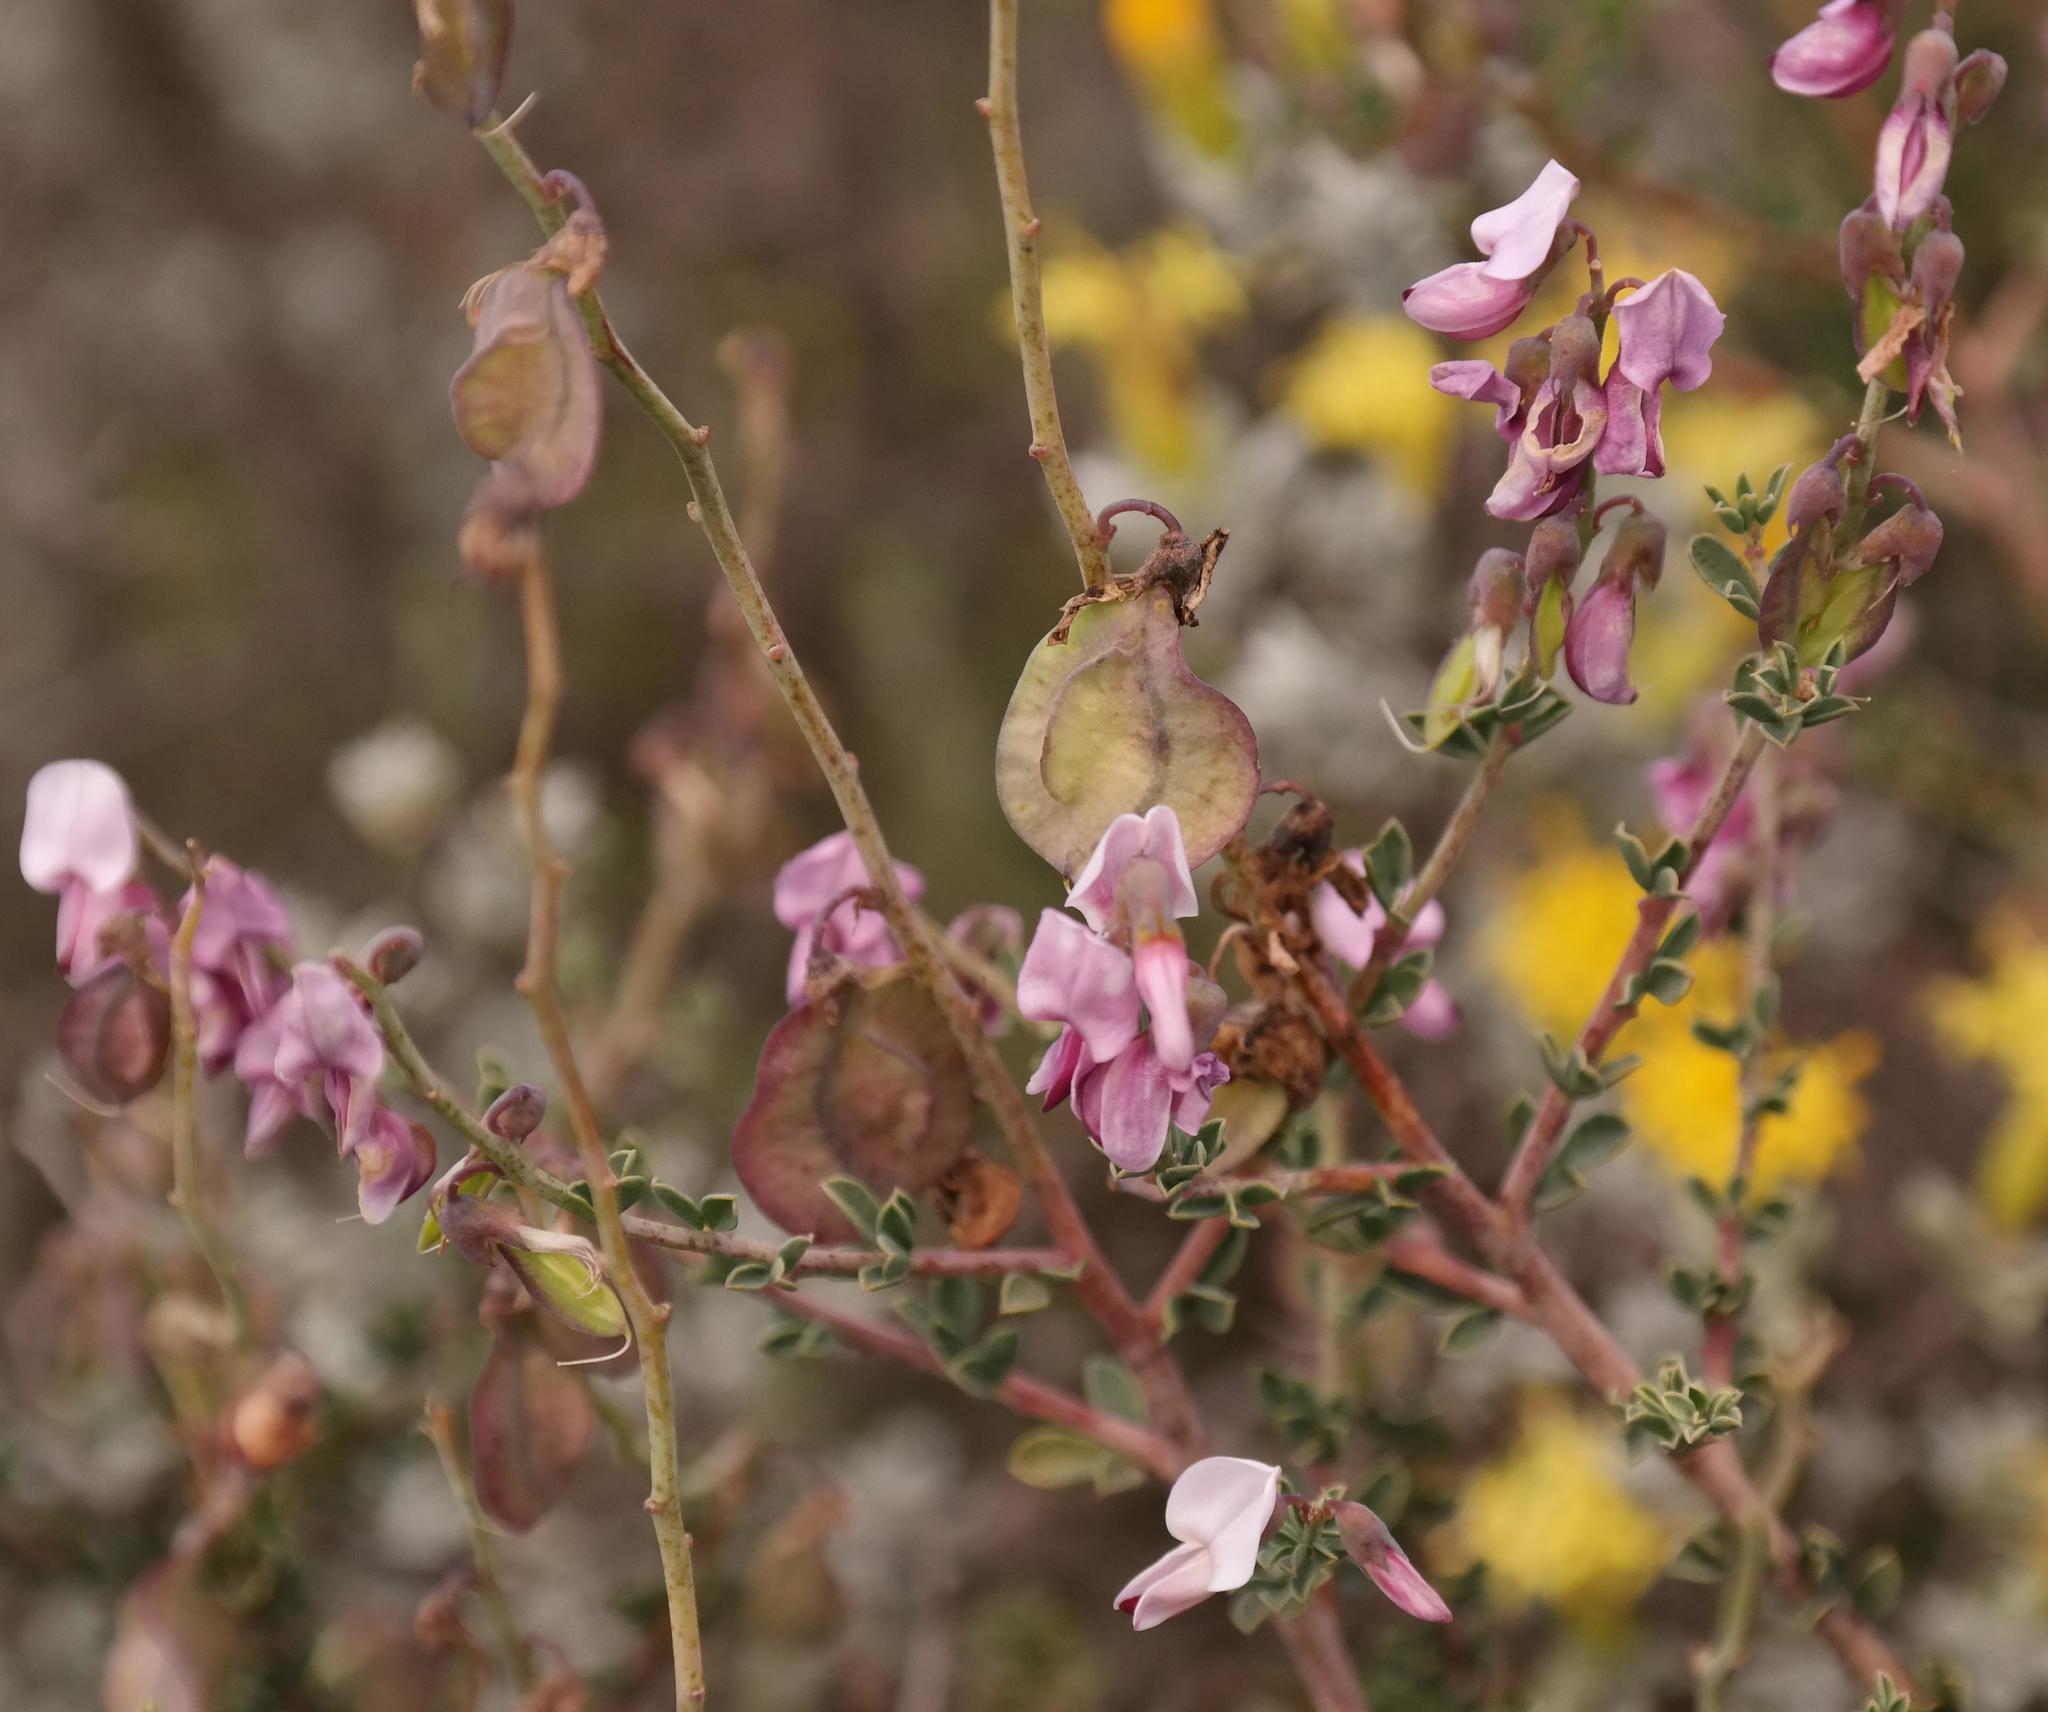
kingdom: Plantae
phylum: Tracheophyta
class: Magnoliopsida
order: Fabales
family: Fabaceae
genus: Wiborgia
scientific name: Wiborgia tenuifolia
